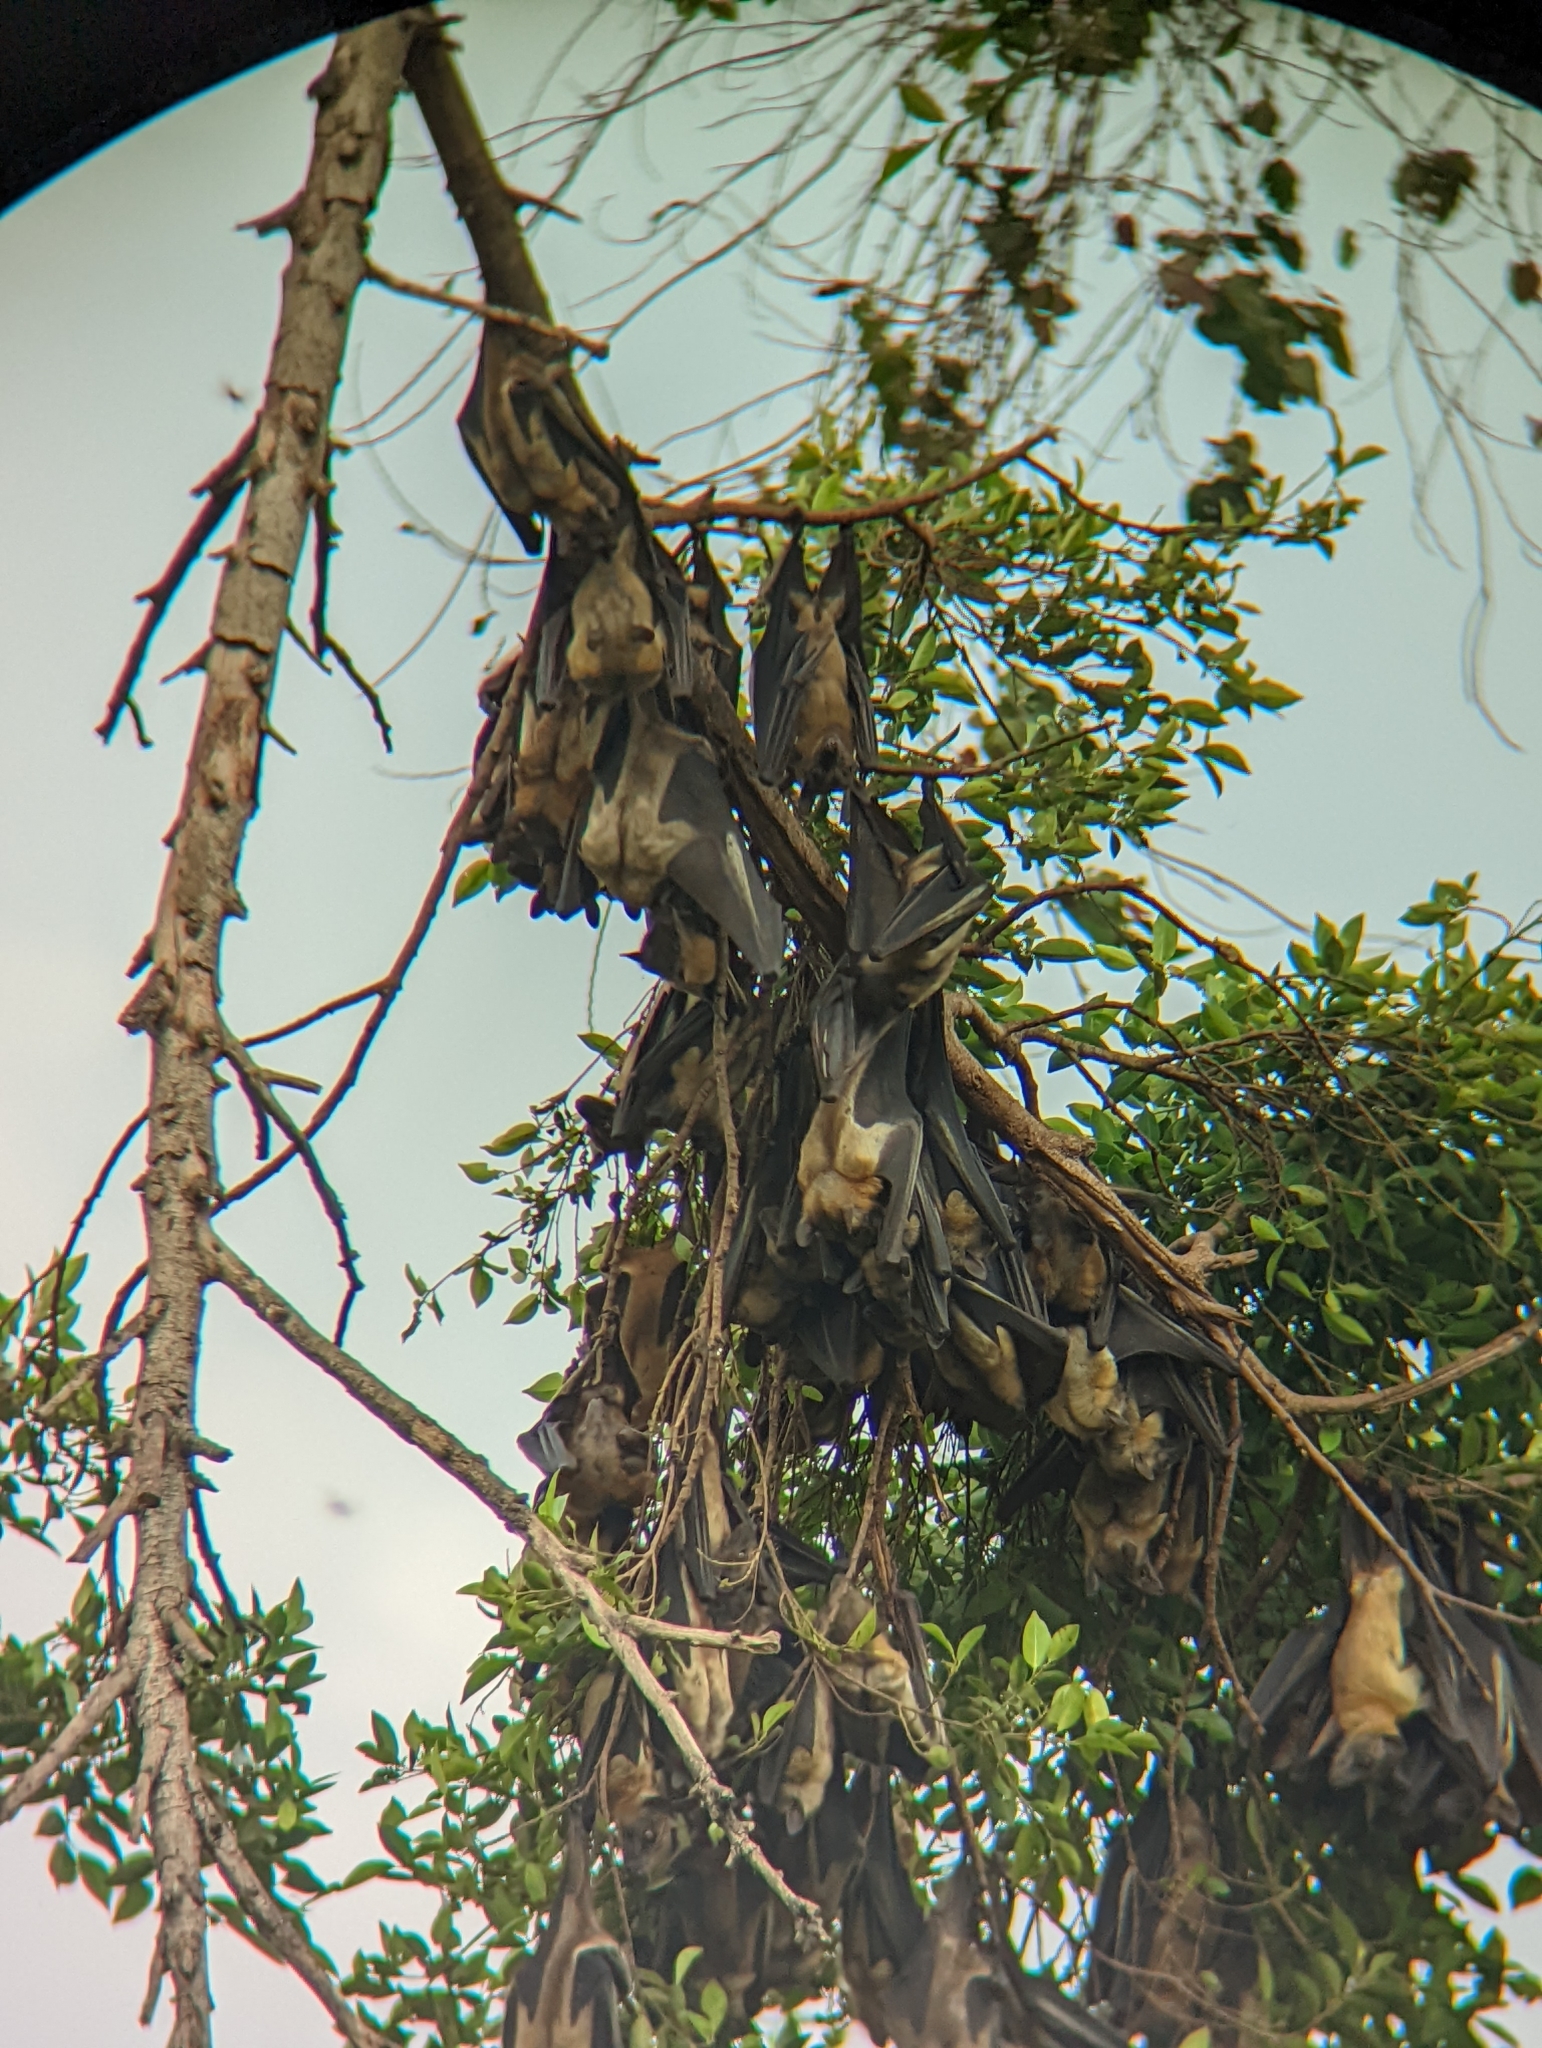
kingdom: Animalia
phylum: Chordata
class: Mammalia
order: Chiroptera
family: Pteropodidae
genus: Eidolon
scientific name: Eidolon helvum
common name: Straw-colored fruit bat
